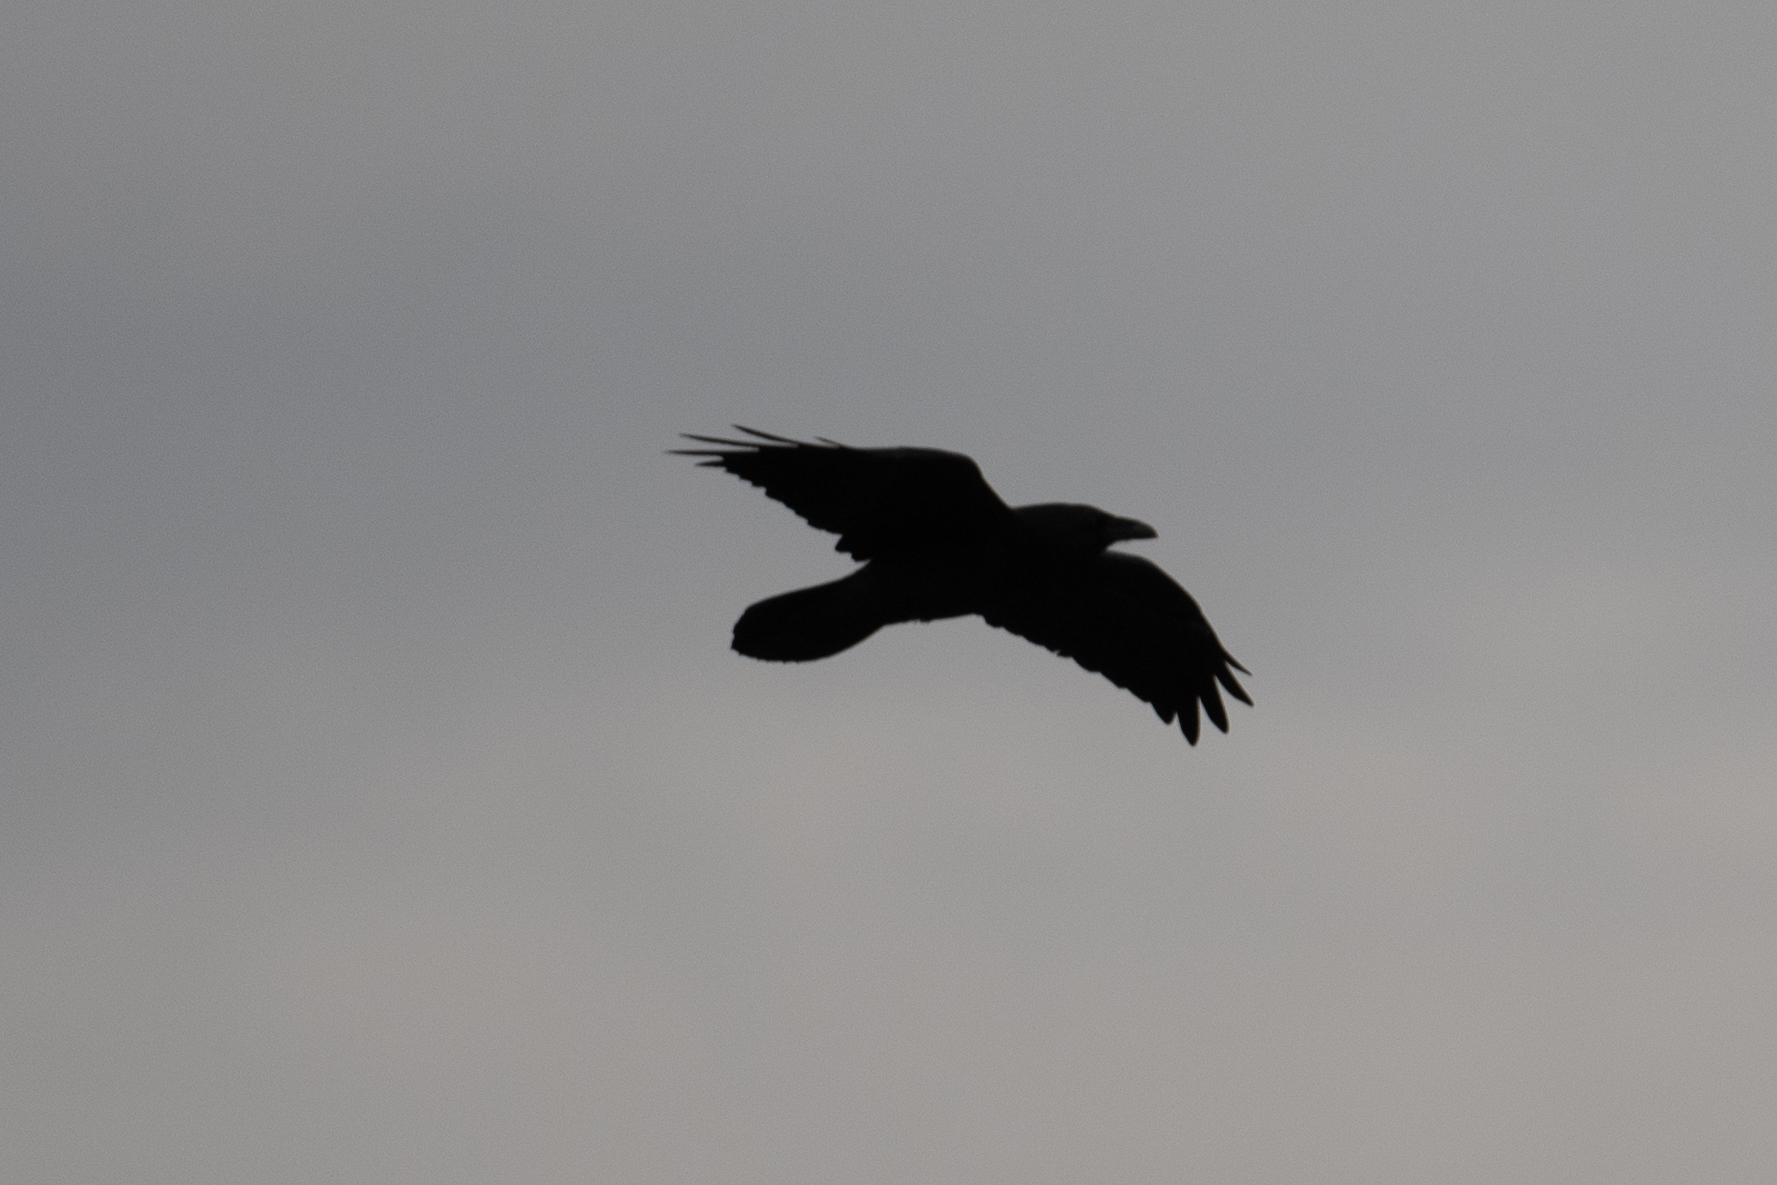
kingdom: Animalia
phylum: Chordata
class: Aves
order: Passeriformes
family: Corvidae
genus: Corvus
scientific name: Corvus corax
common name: Common raven
